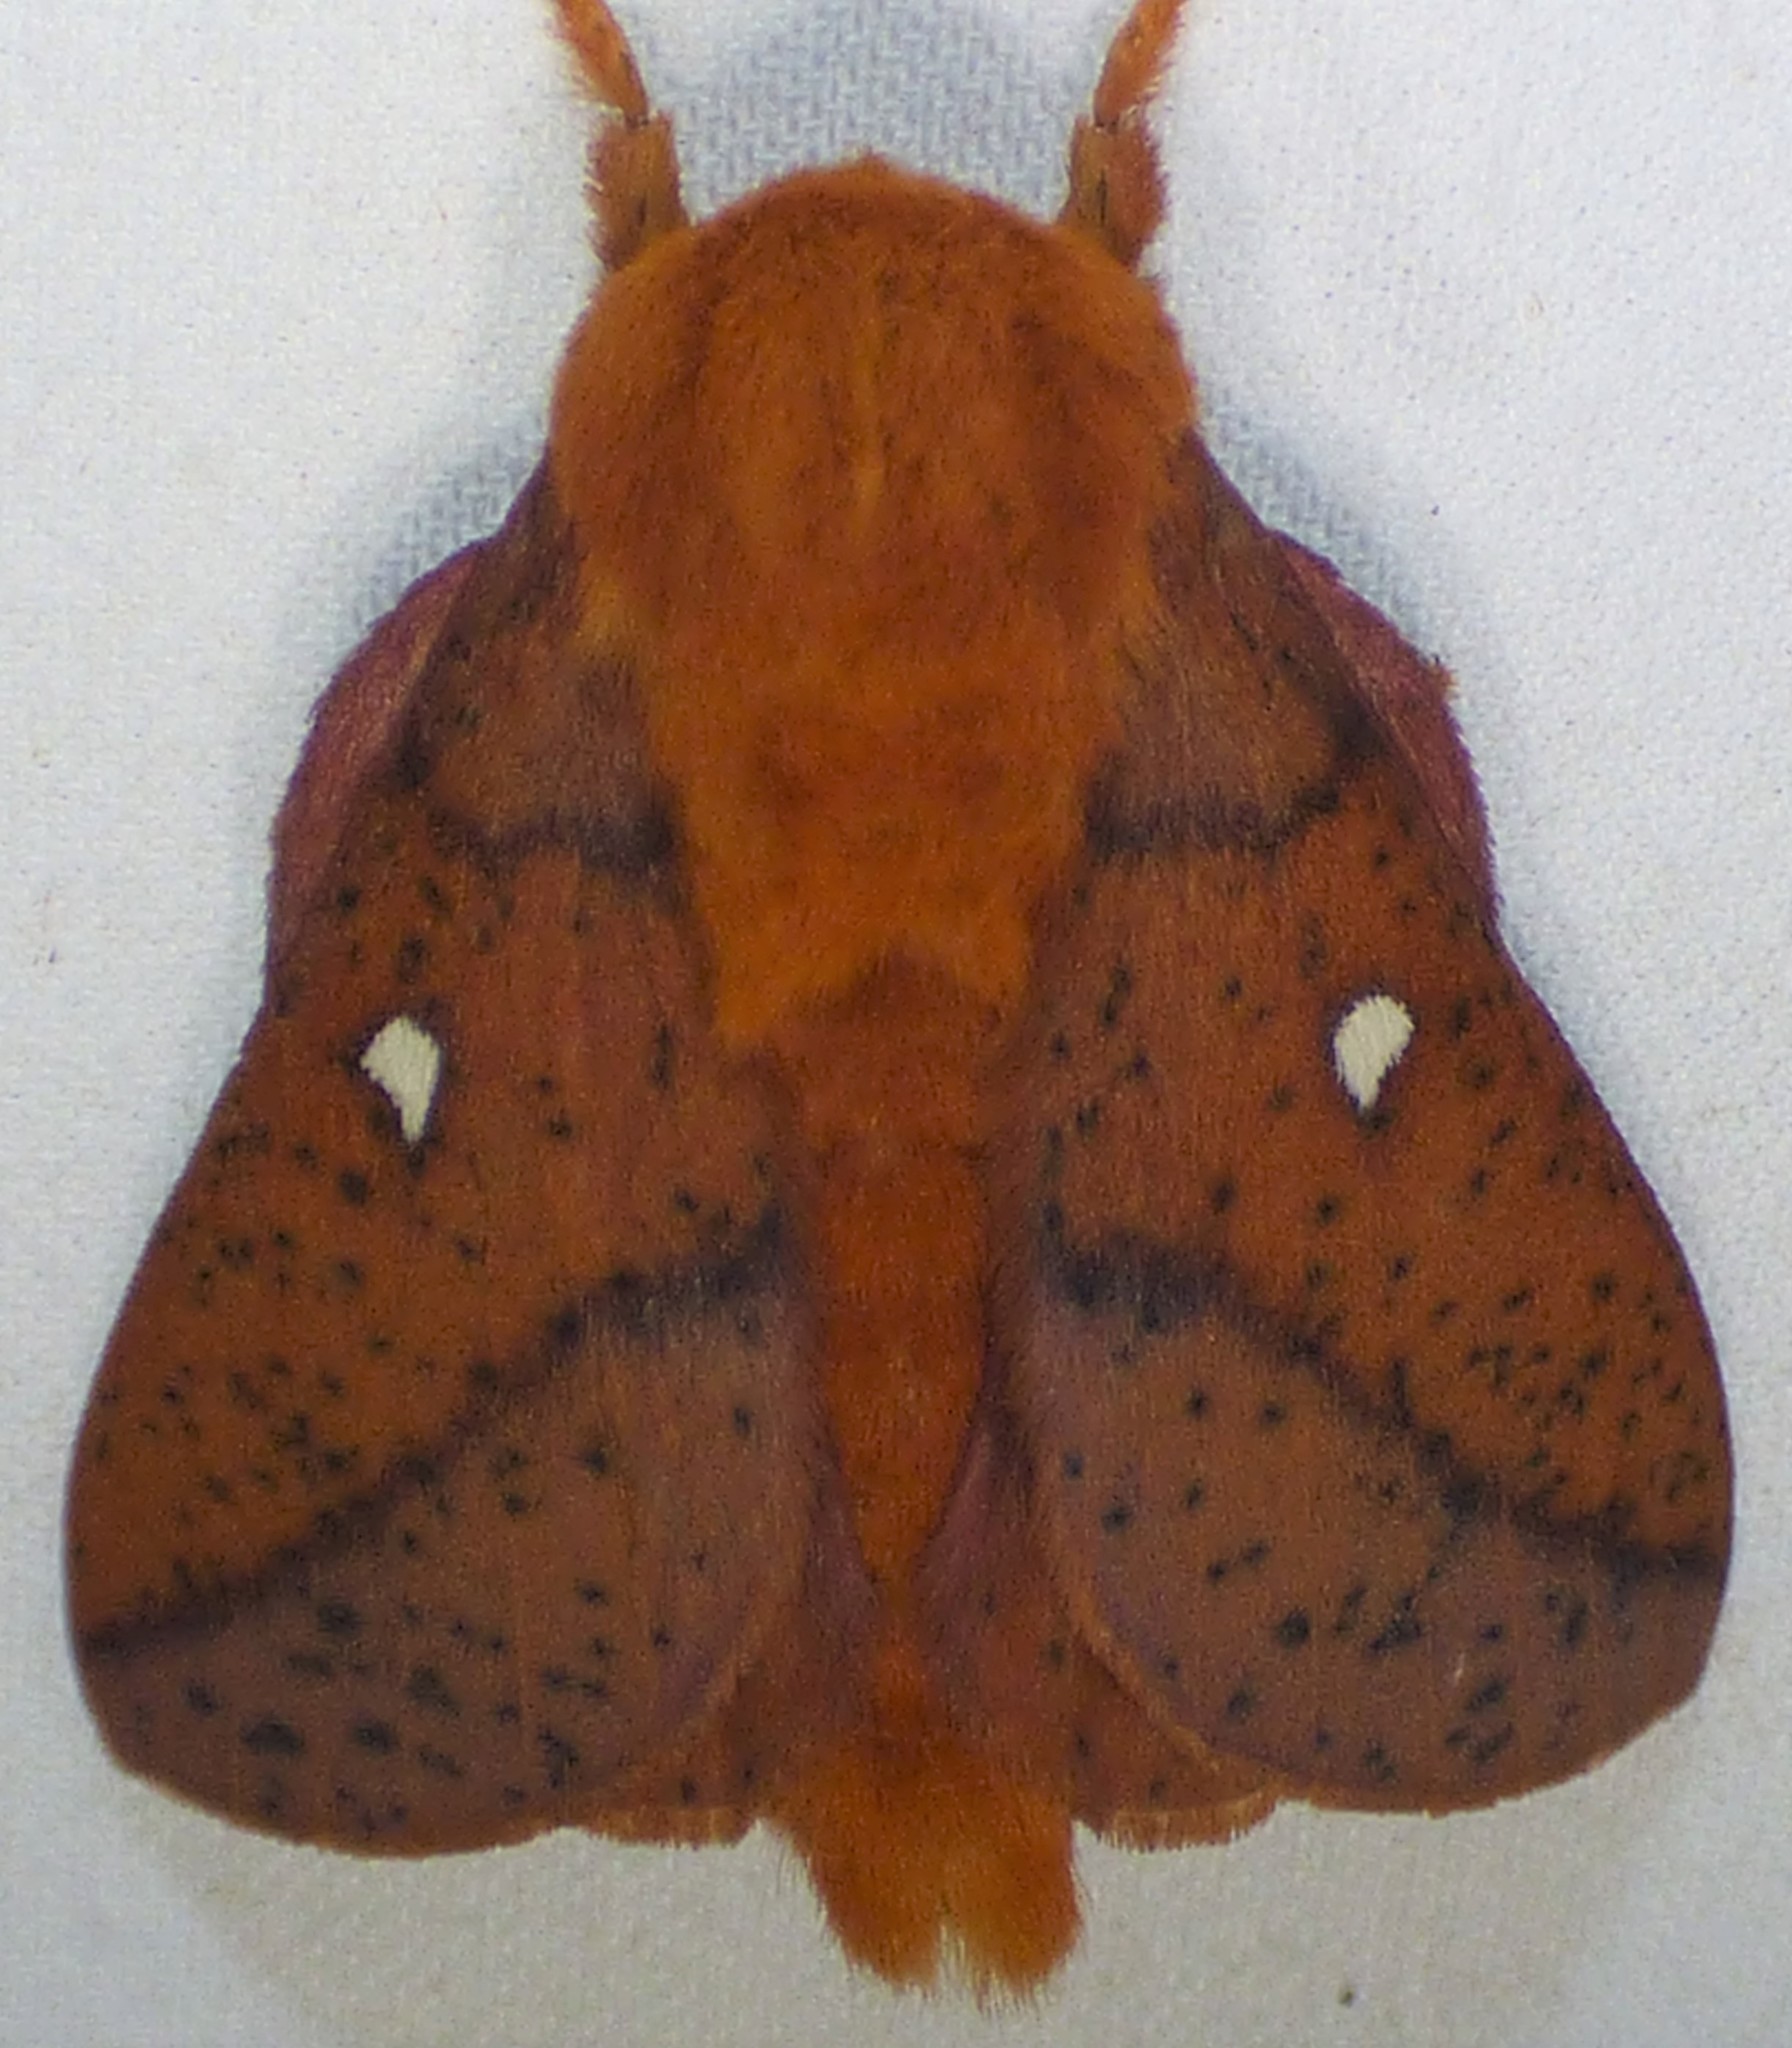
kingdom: Animalia
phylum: Arthropoda
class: Insecta
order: Lepidoptera
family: Saturniidae
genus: Anisota
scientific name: Anisota stigma
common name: Spiny oakworm moth
